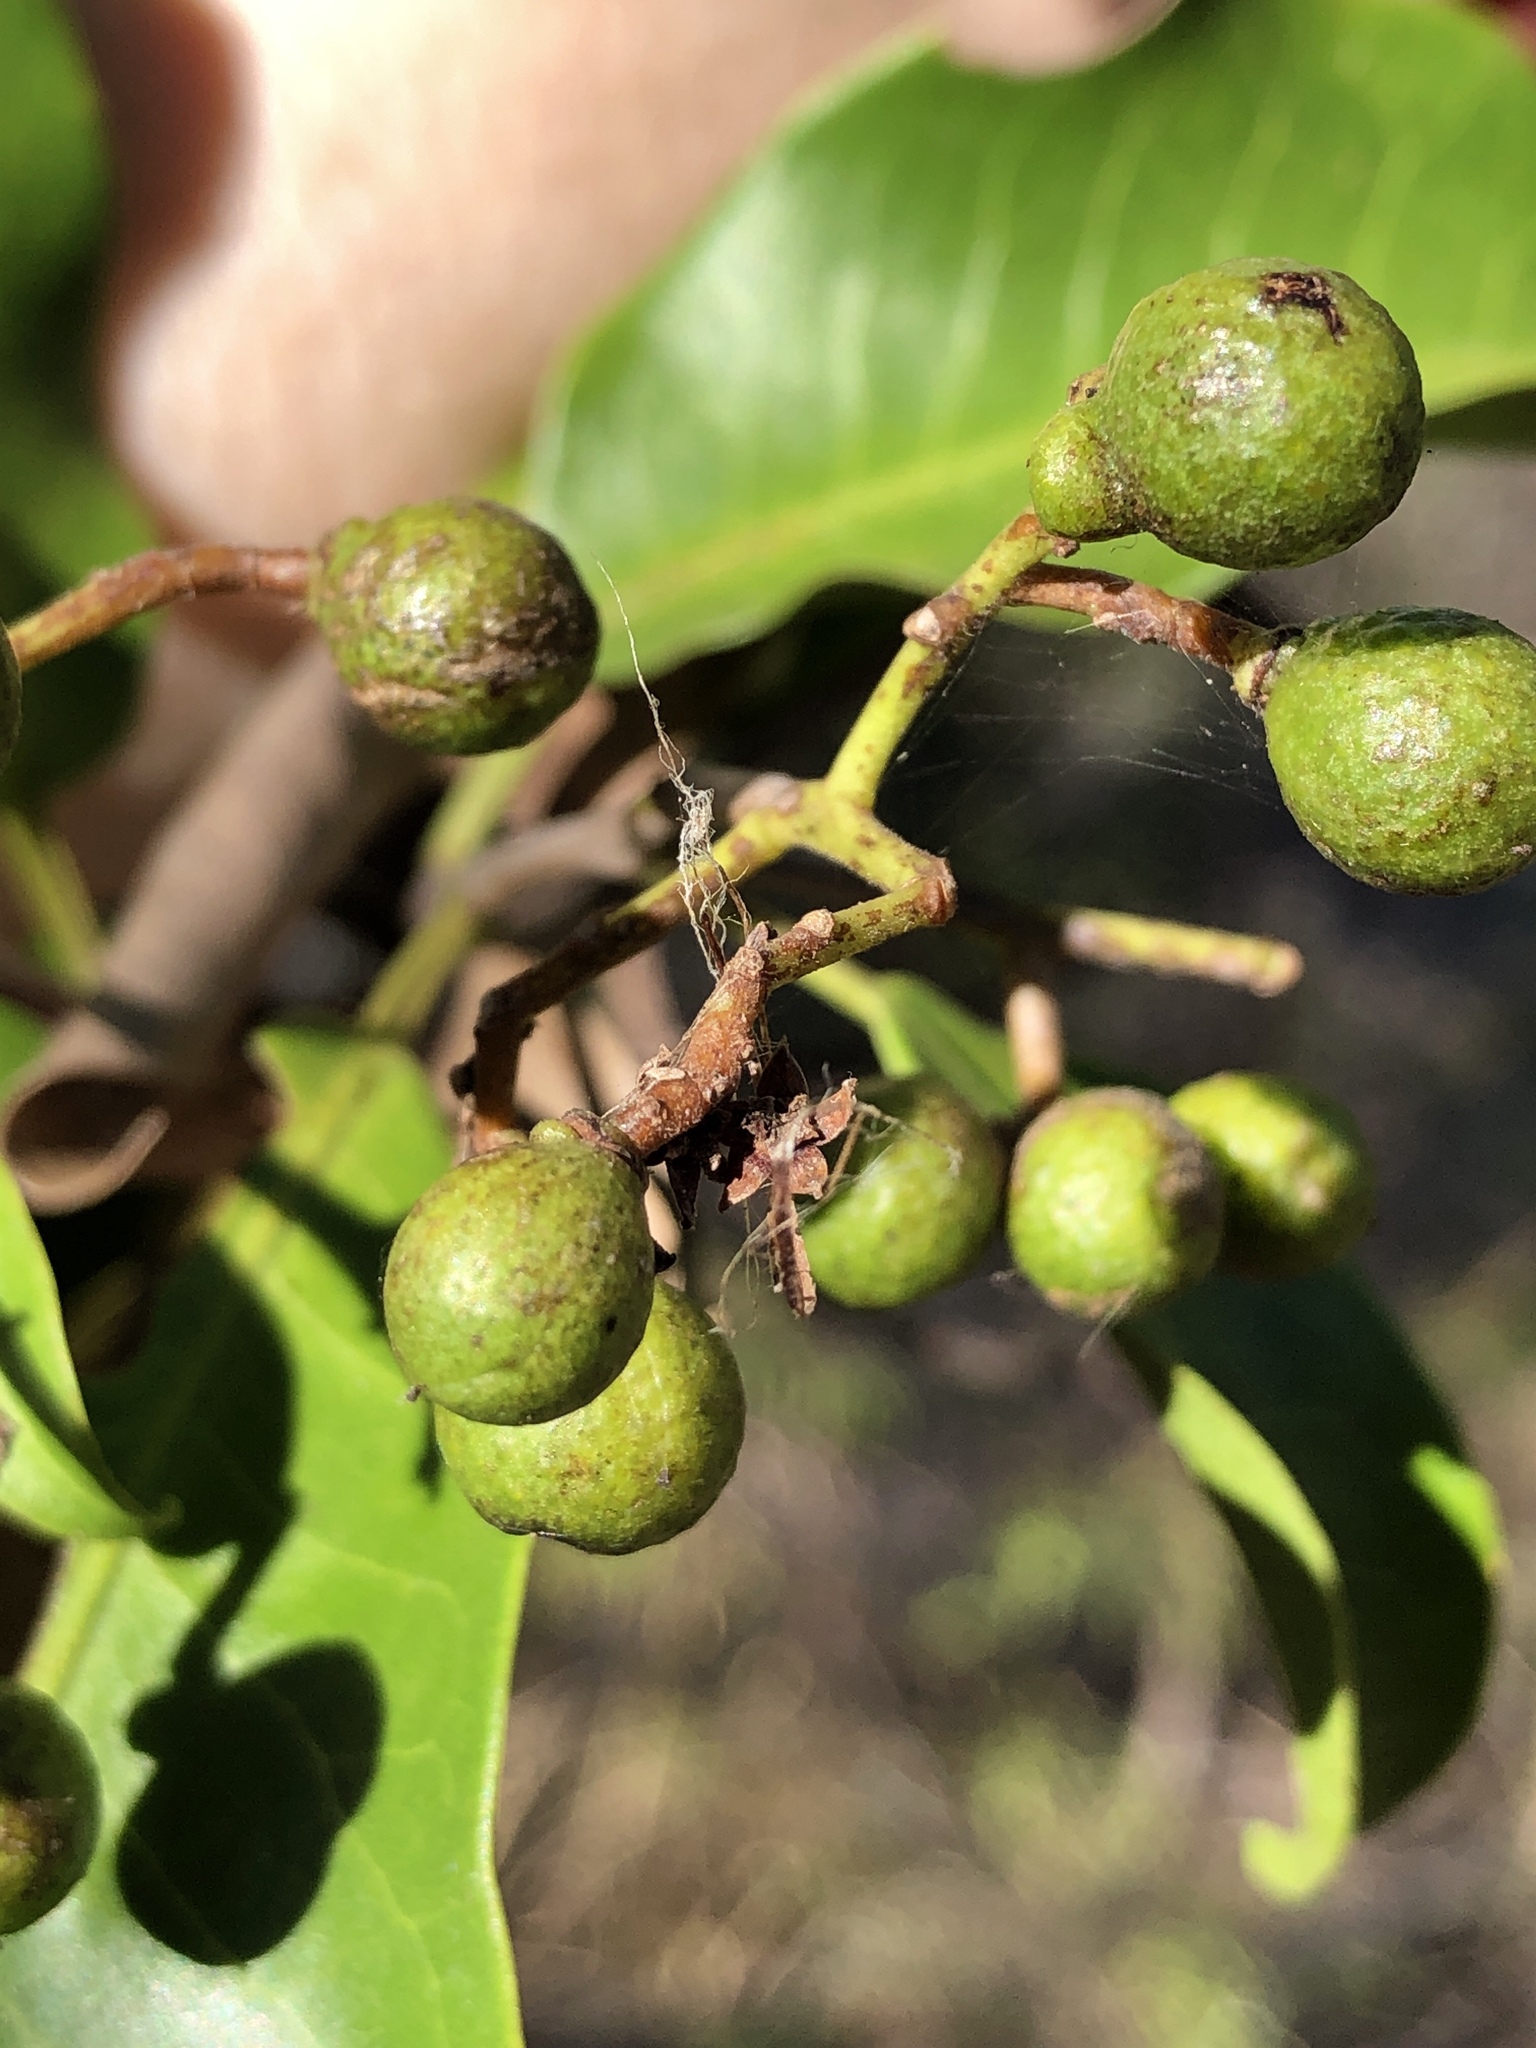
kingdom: Plantae
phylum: Tracheophyta
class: Magnoliopsida
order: Sapindales
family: Rutaceae
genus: Geijera
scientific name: Geijera salicifolia
